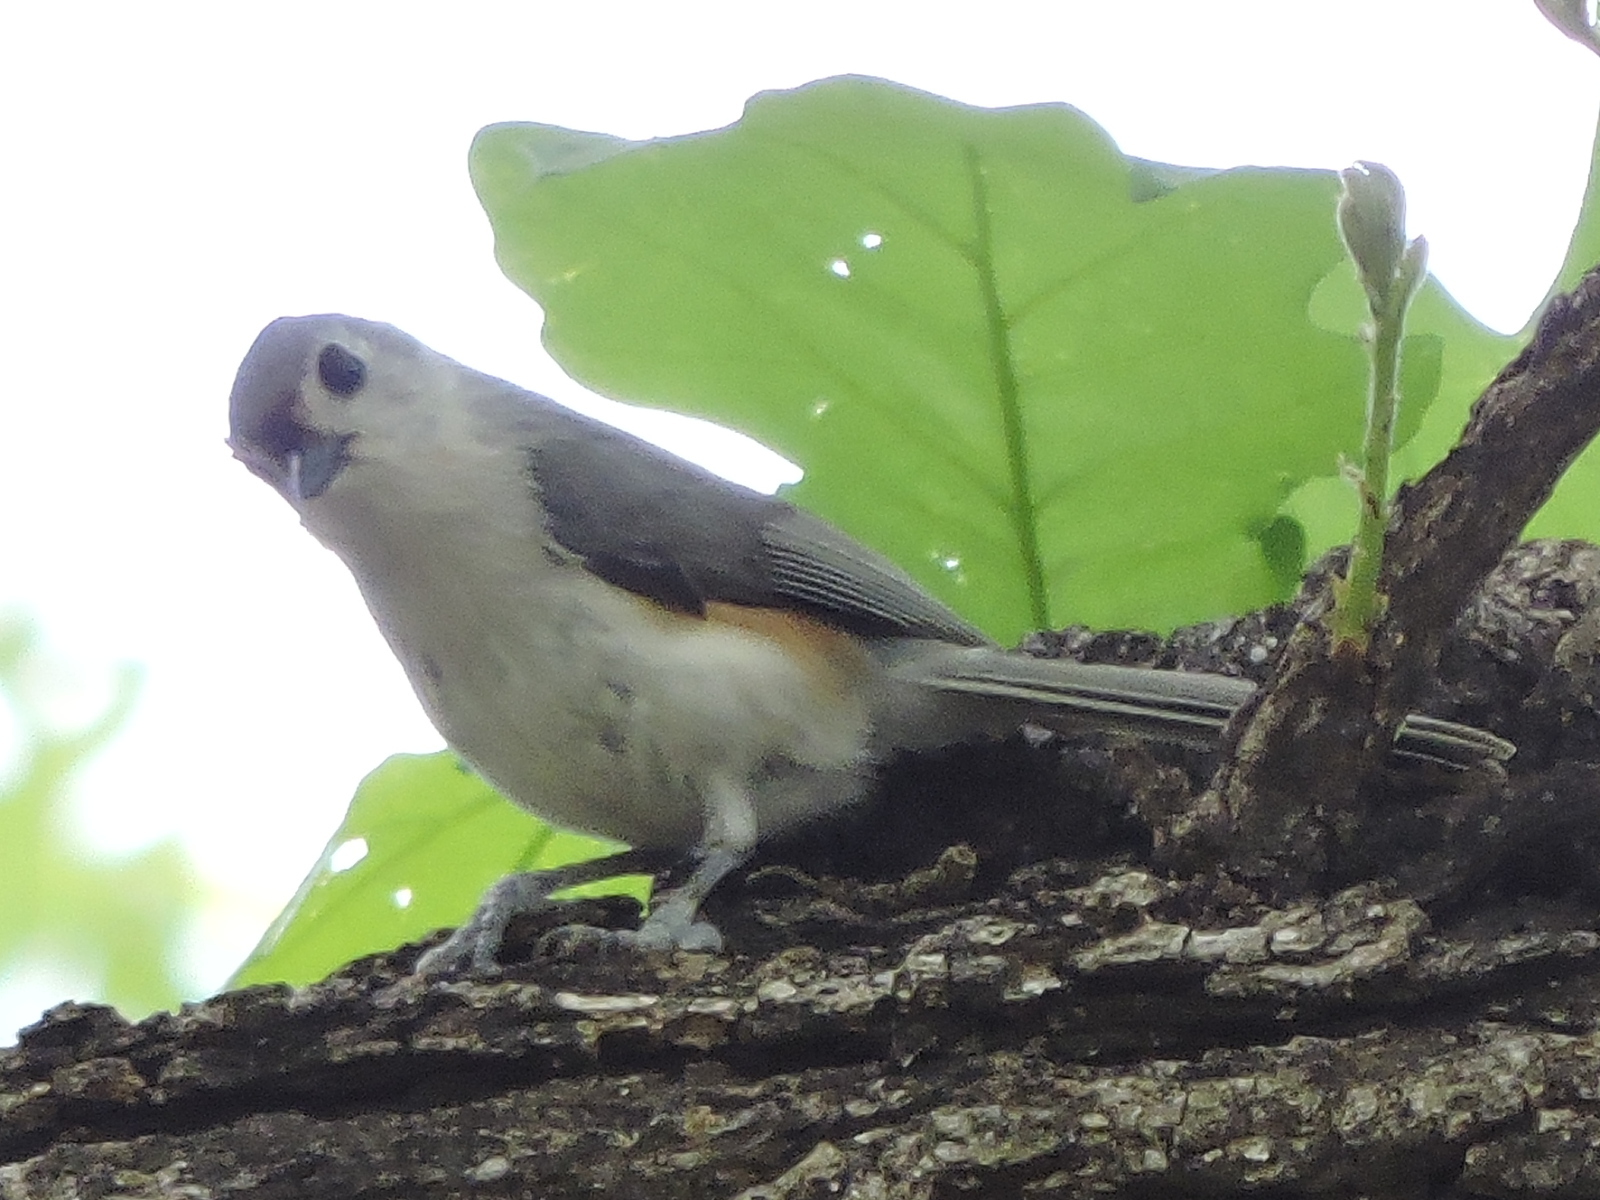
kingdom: Animalia
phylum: Chordata
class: Aves
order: Passeriformes
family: Paridae
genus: Baeolophus
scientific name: Baeolophus bicolor
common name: Tufted titmouse
